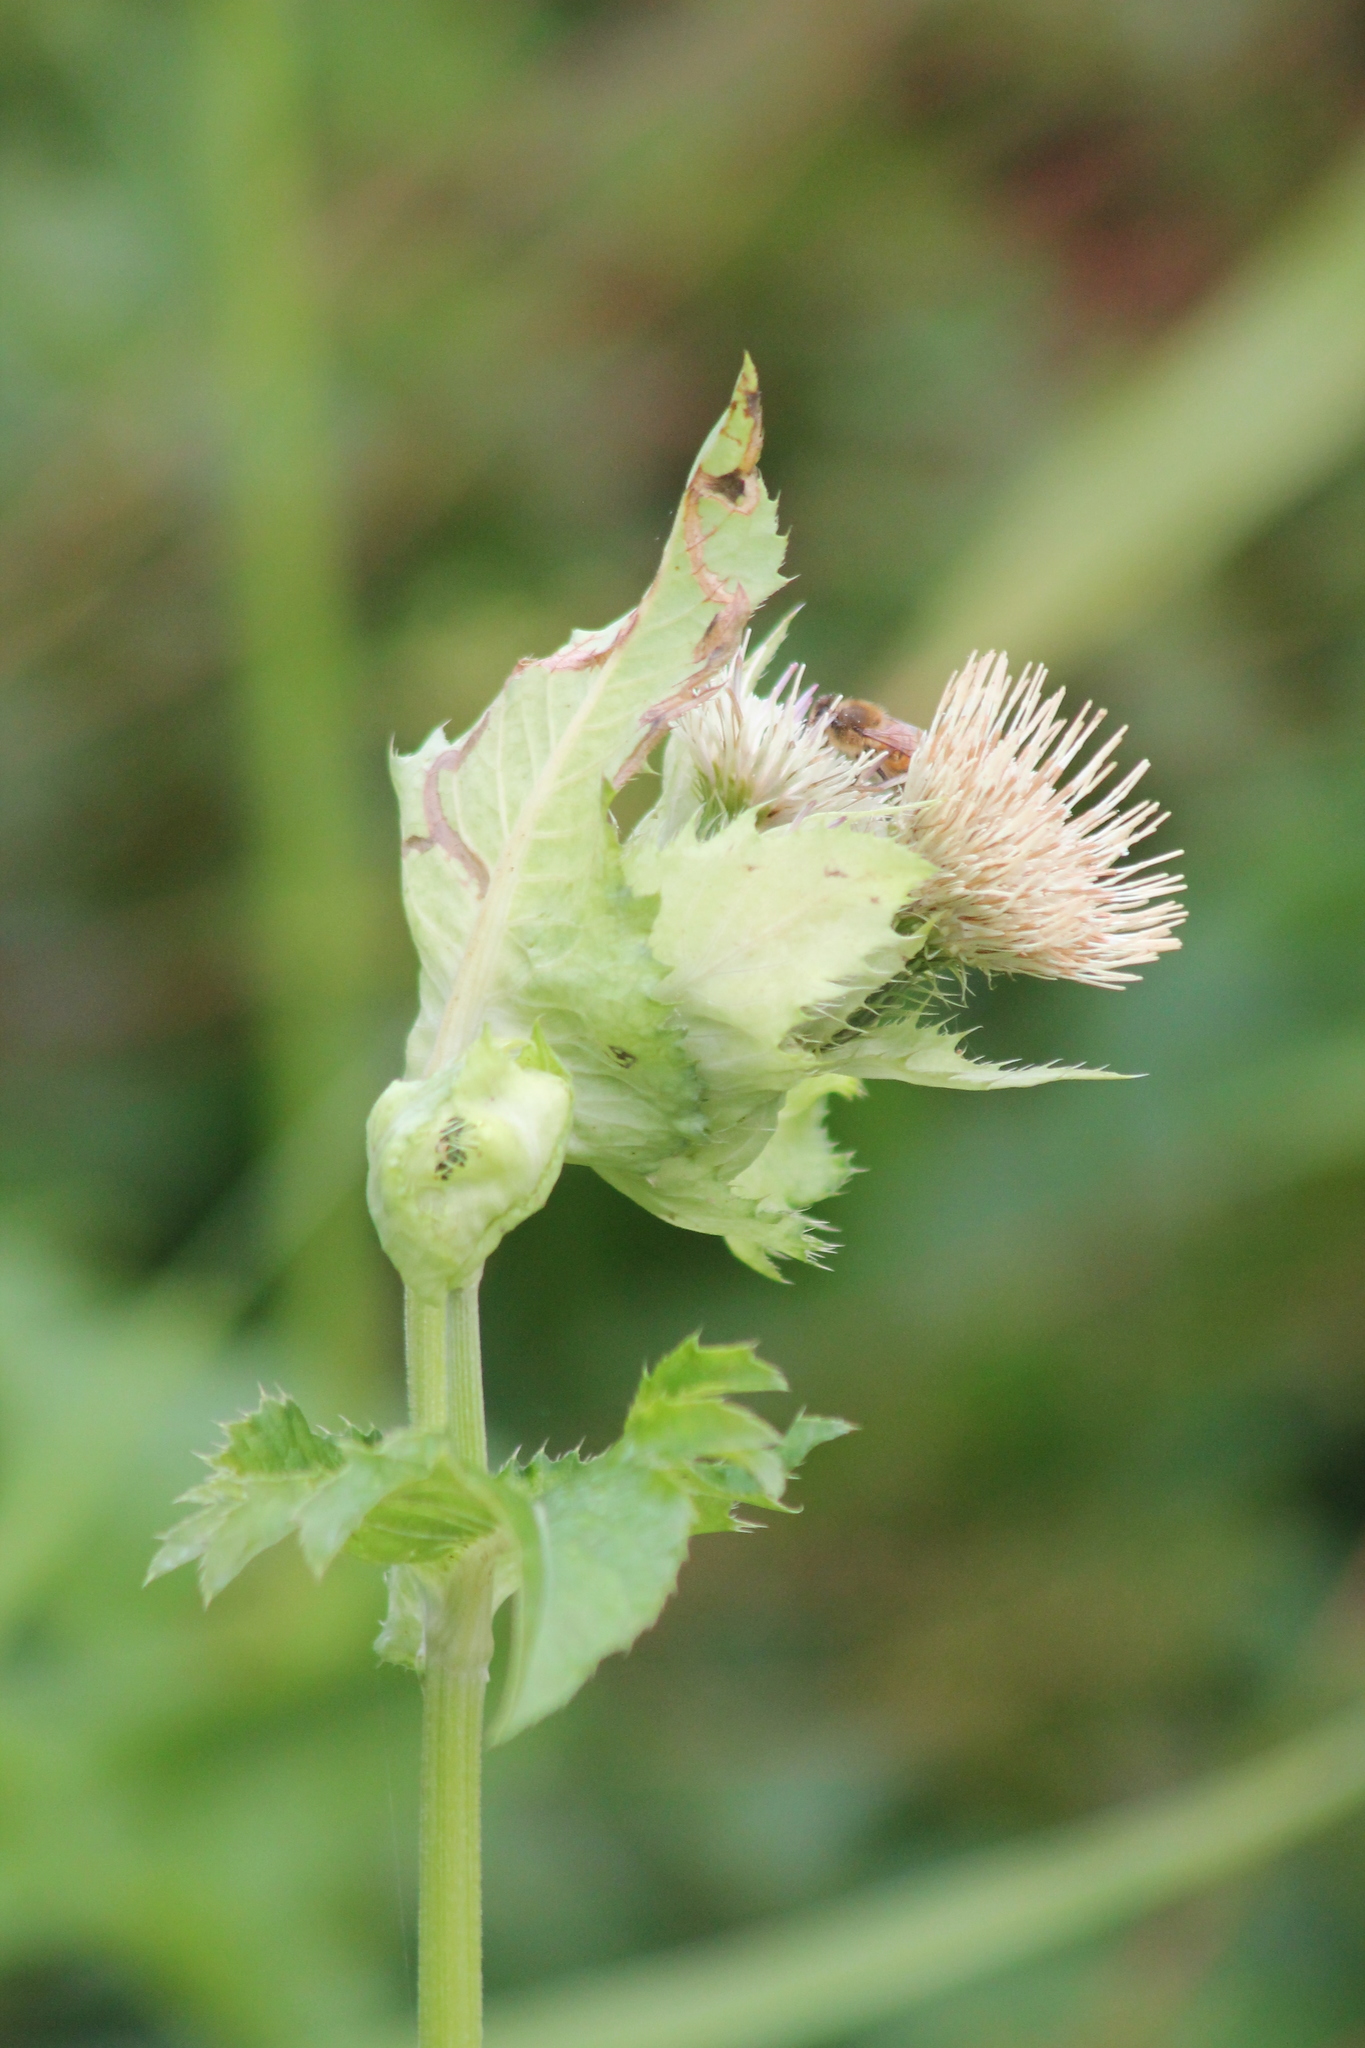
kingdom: Plantae
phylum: Tracheophyta
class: Magnoliopsida
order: Asterales
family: Asteraceae
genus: Cirsium
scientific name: Cirsium oleraceum
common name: Cabbage thistle
